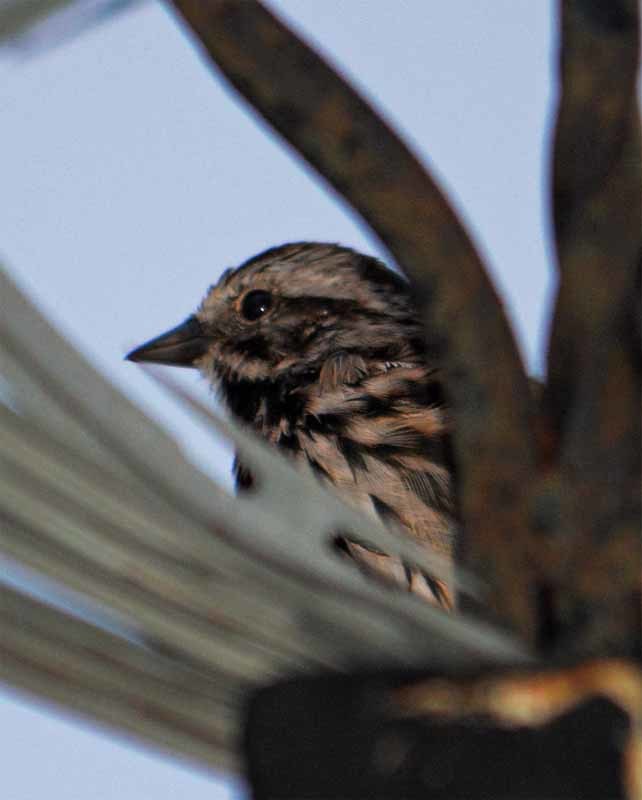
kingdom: Animalia
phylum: Chordata
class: Aves
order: Passeriformes
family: Passerellidae
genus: Melospiza
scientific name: Melospiza melodia
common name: Song sparrow
